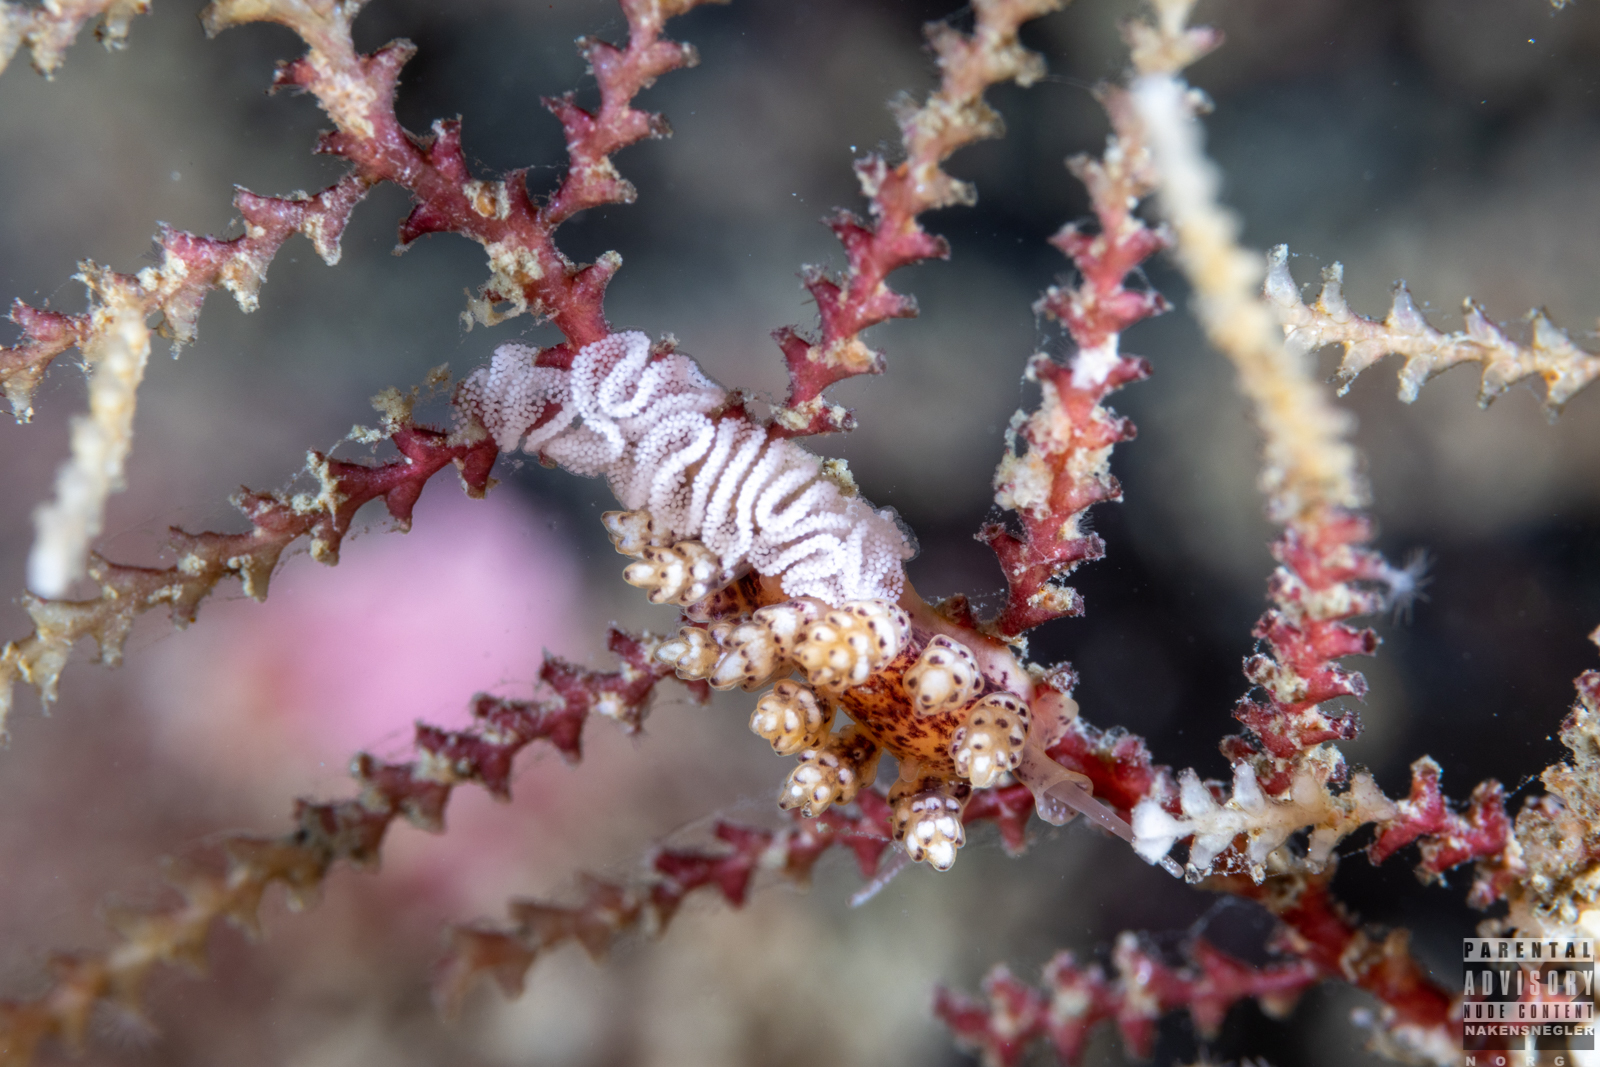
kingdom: Animalia
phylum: Mollusca
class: Gastropoda
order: Nudibranchia
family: Dotidae
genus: Doto
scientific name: Doto coronata
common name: Coronate doto
